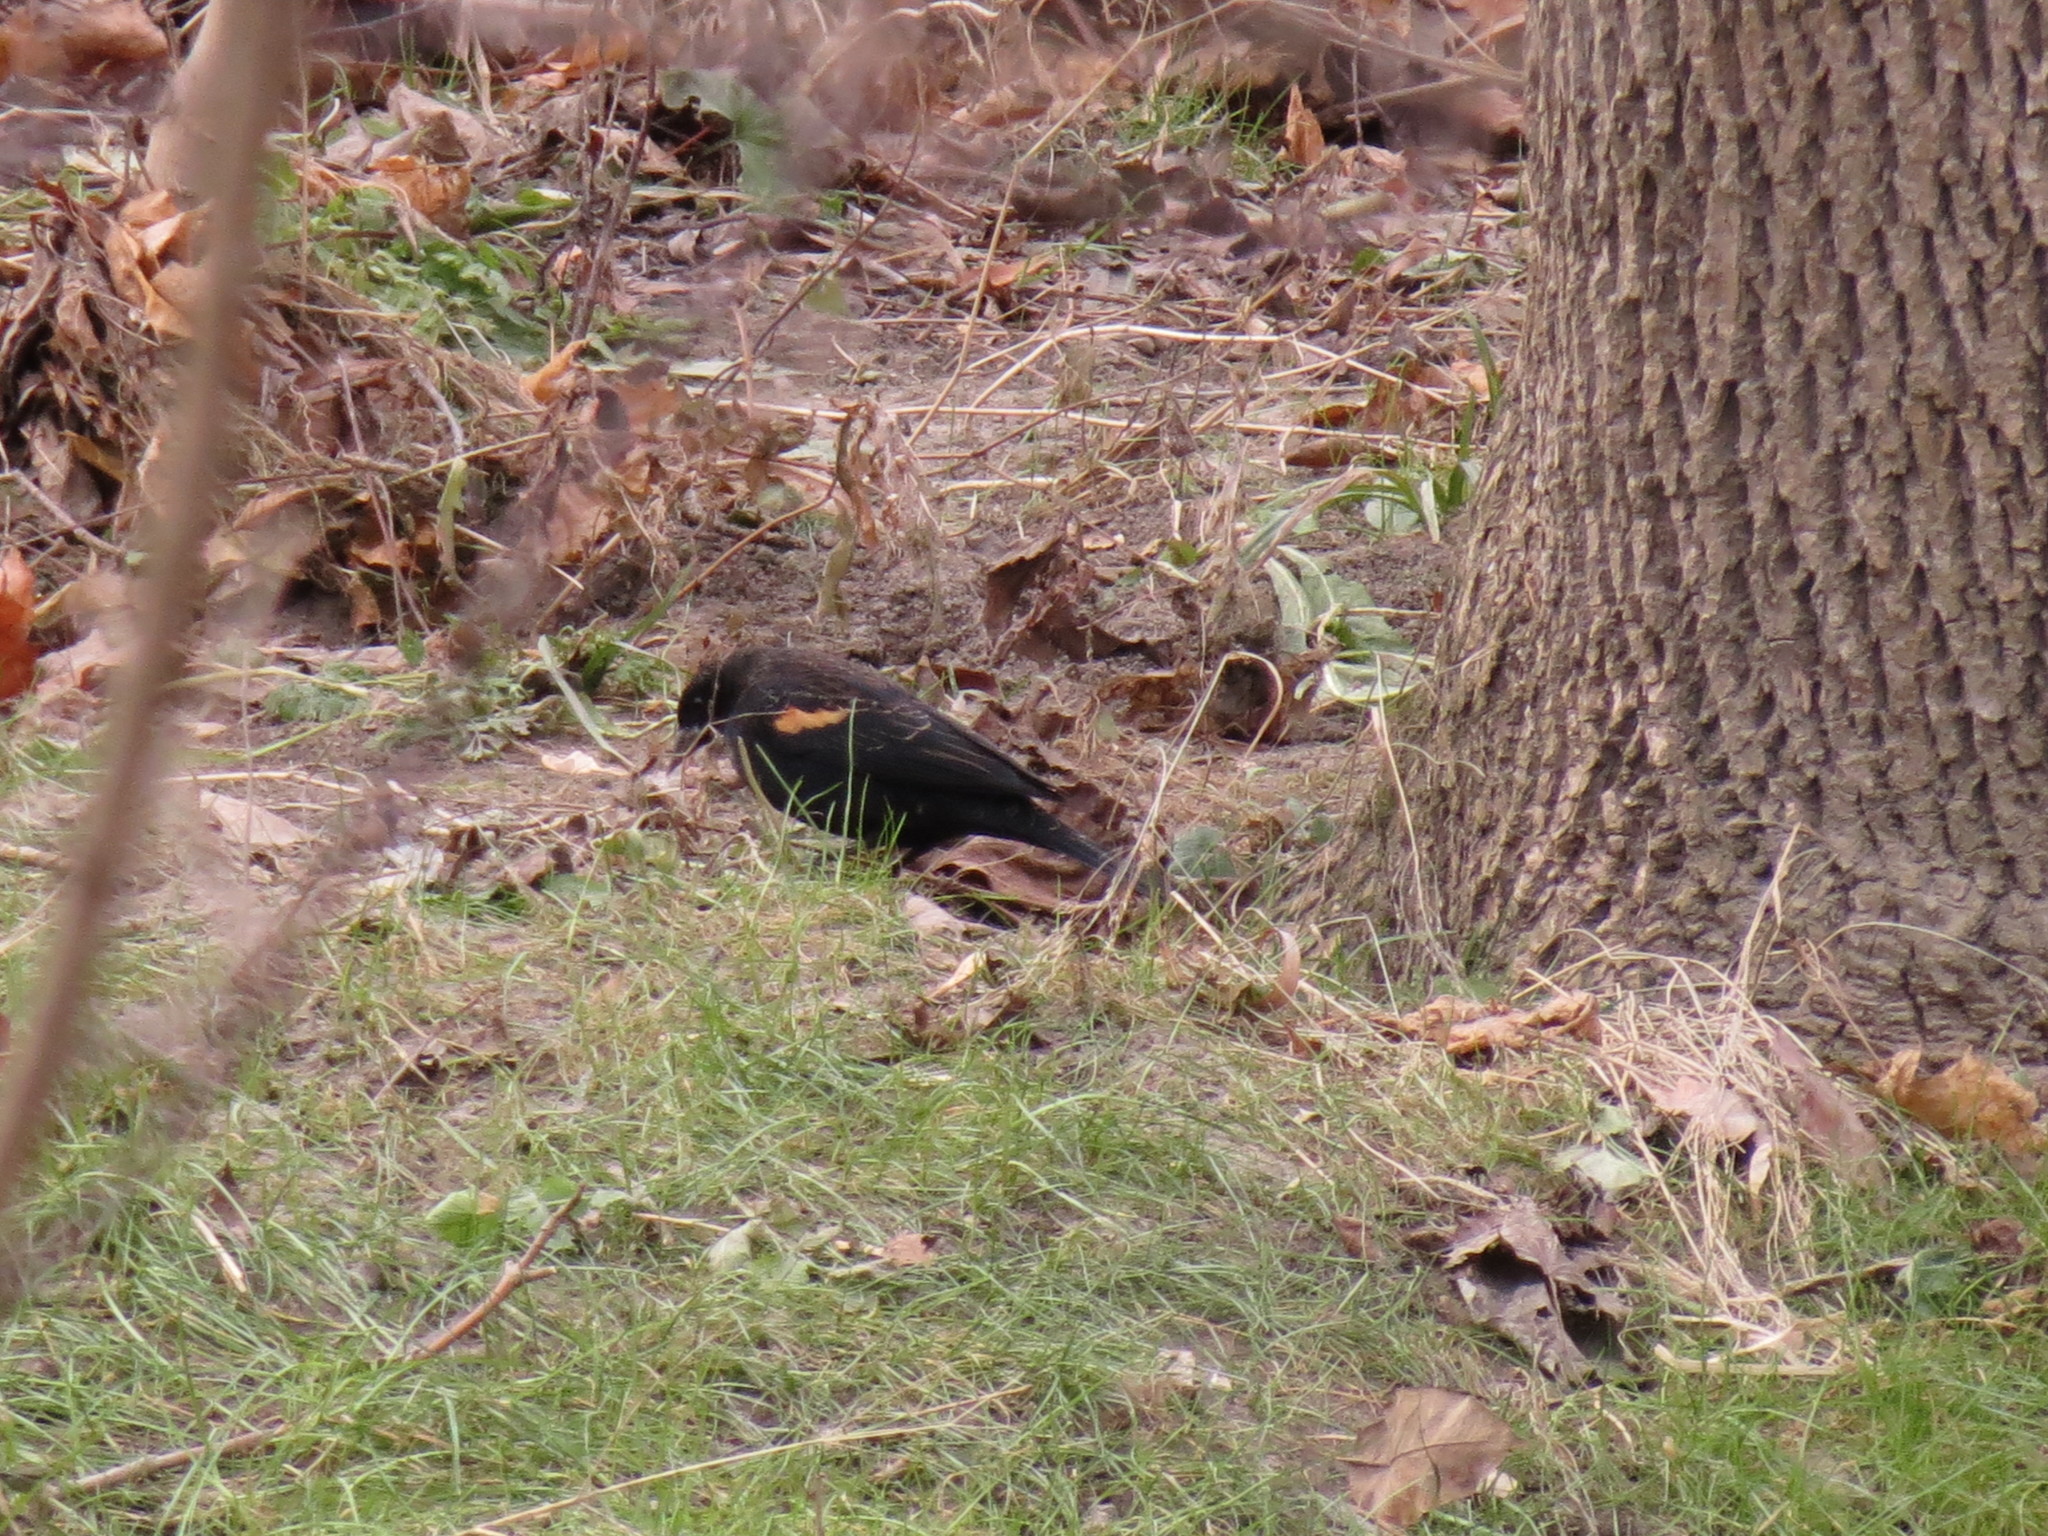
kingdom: Animalia
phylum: Chordata
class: Aves
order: Passeriformes
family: Icteridae
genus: Agelaius
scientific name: Agelaius phoeniceus
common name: Red-winged blackbird
